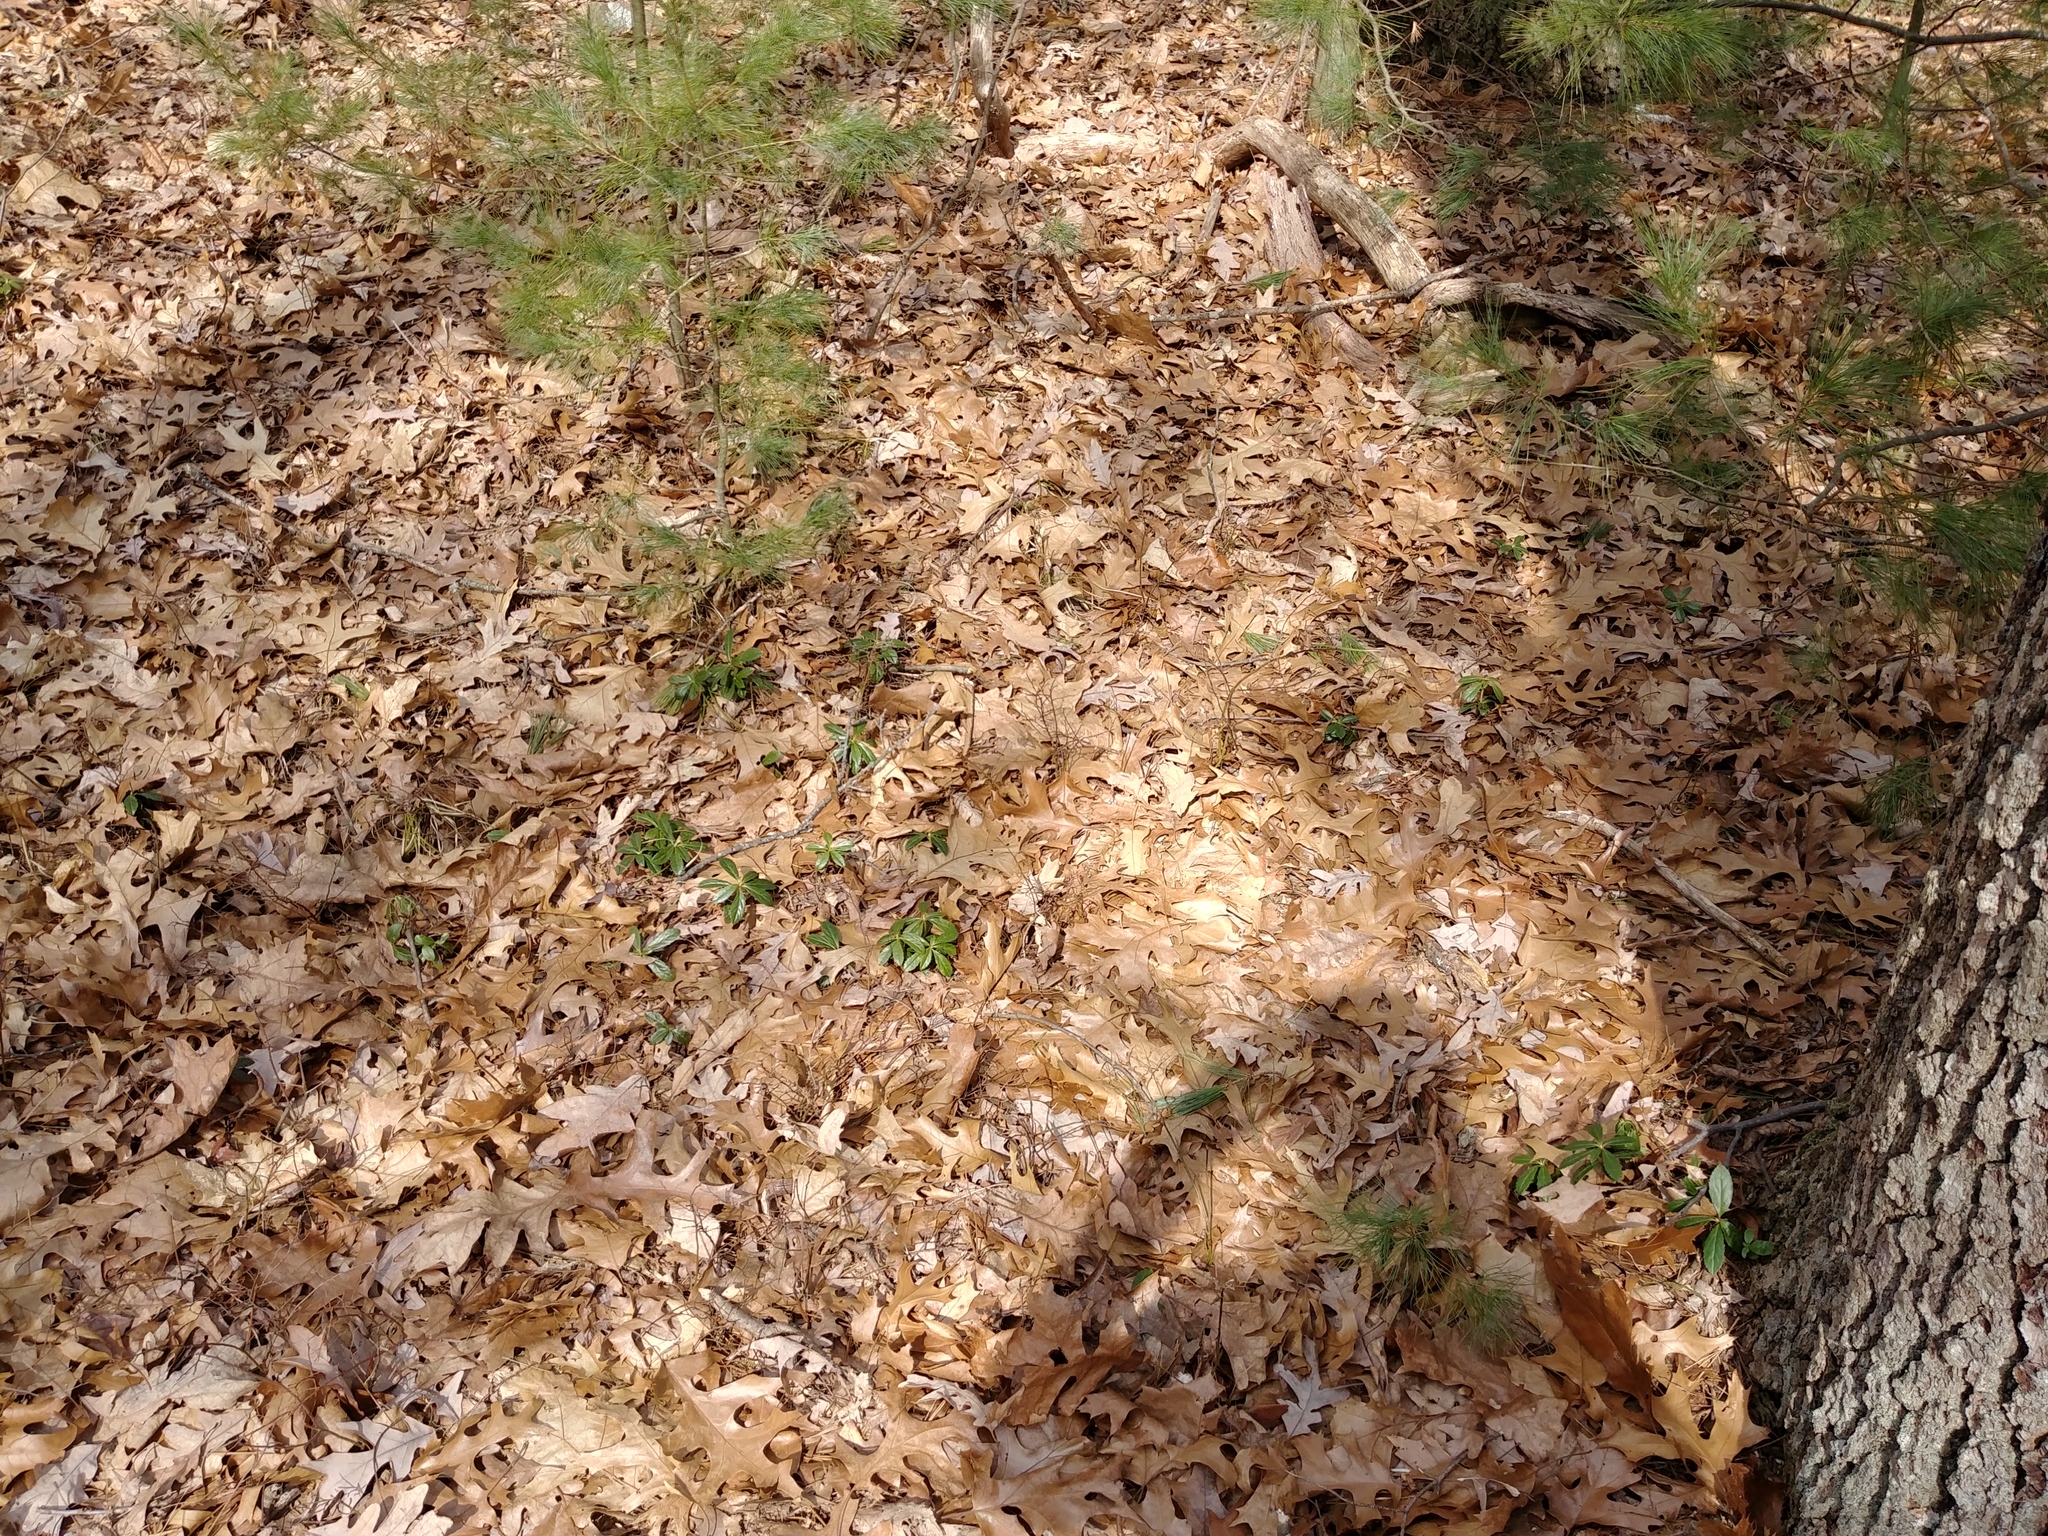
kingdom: Plantae
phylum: Tracheophyta
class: Magnoliopsida
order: Ericales
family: Ericaceae
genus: Chimaphila
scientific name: Chimaphila umbellata
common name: Pipsissewa
